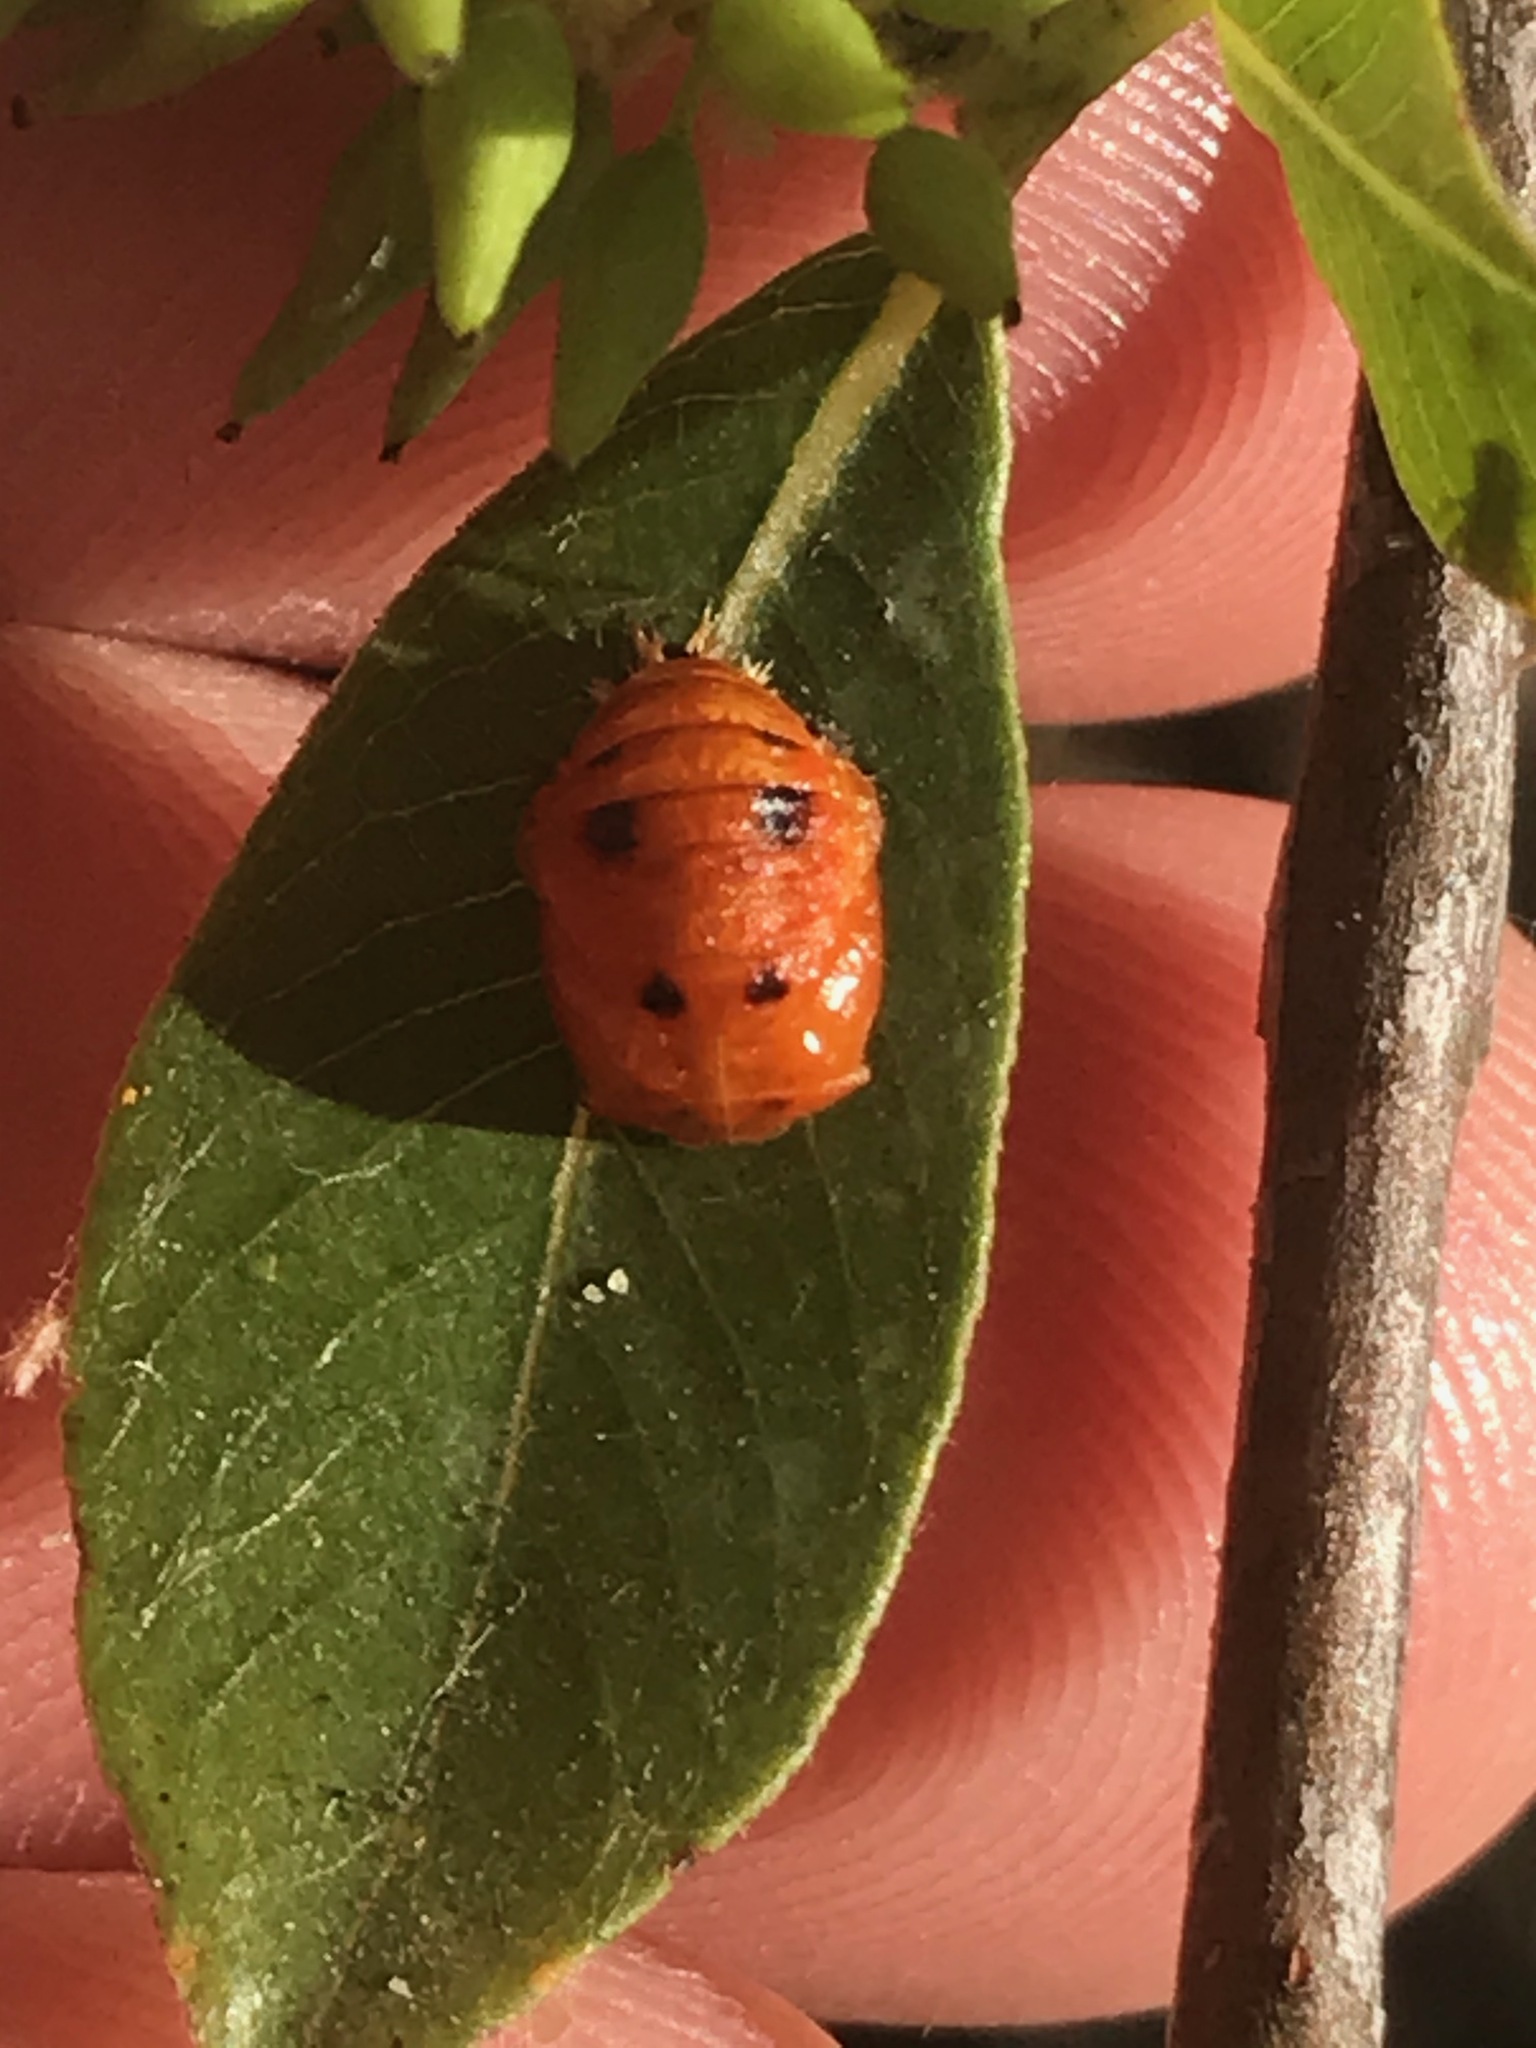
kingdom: Animalia
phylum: Arthropoda
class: Insecta
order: Coleoptera
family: Coccinellidae
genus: Harmonia
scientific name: Harmonia axyridis
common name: Harlequin ladybird
